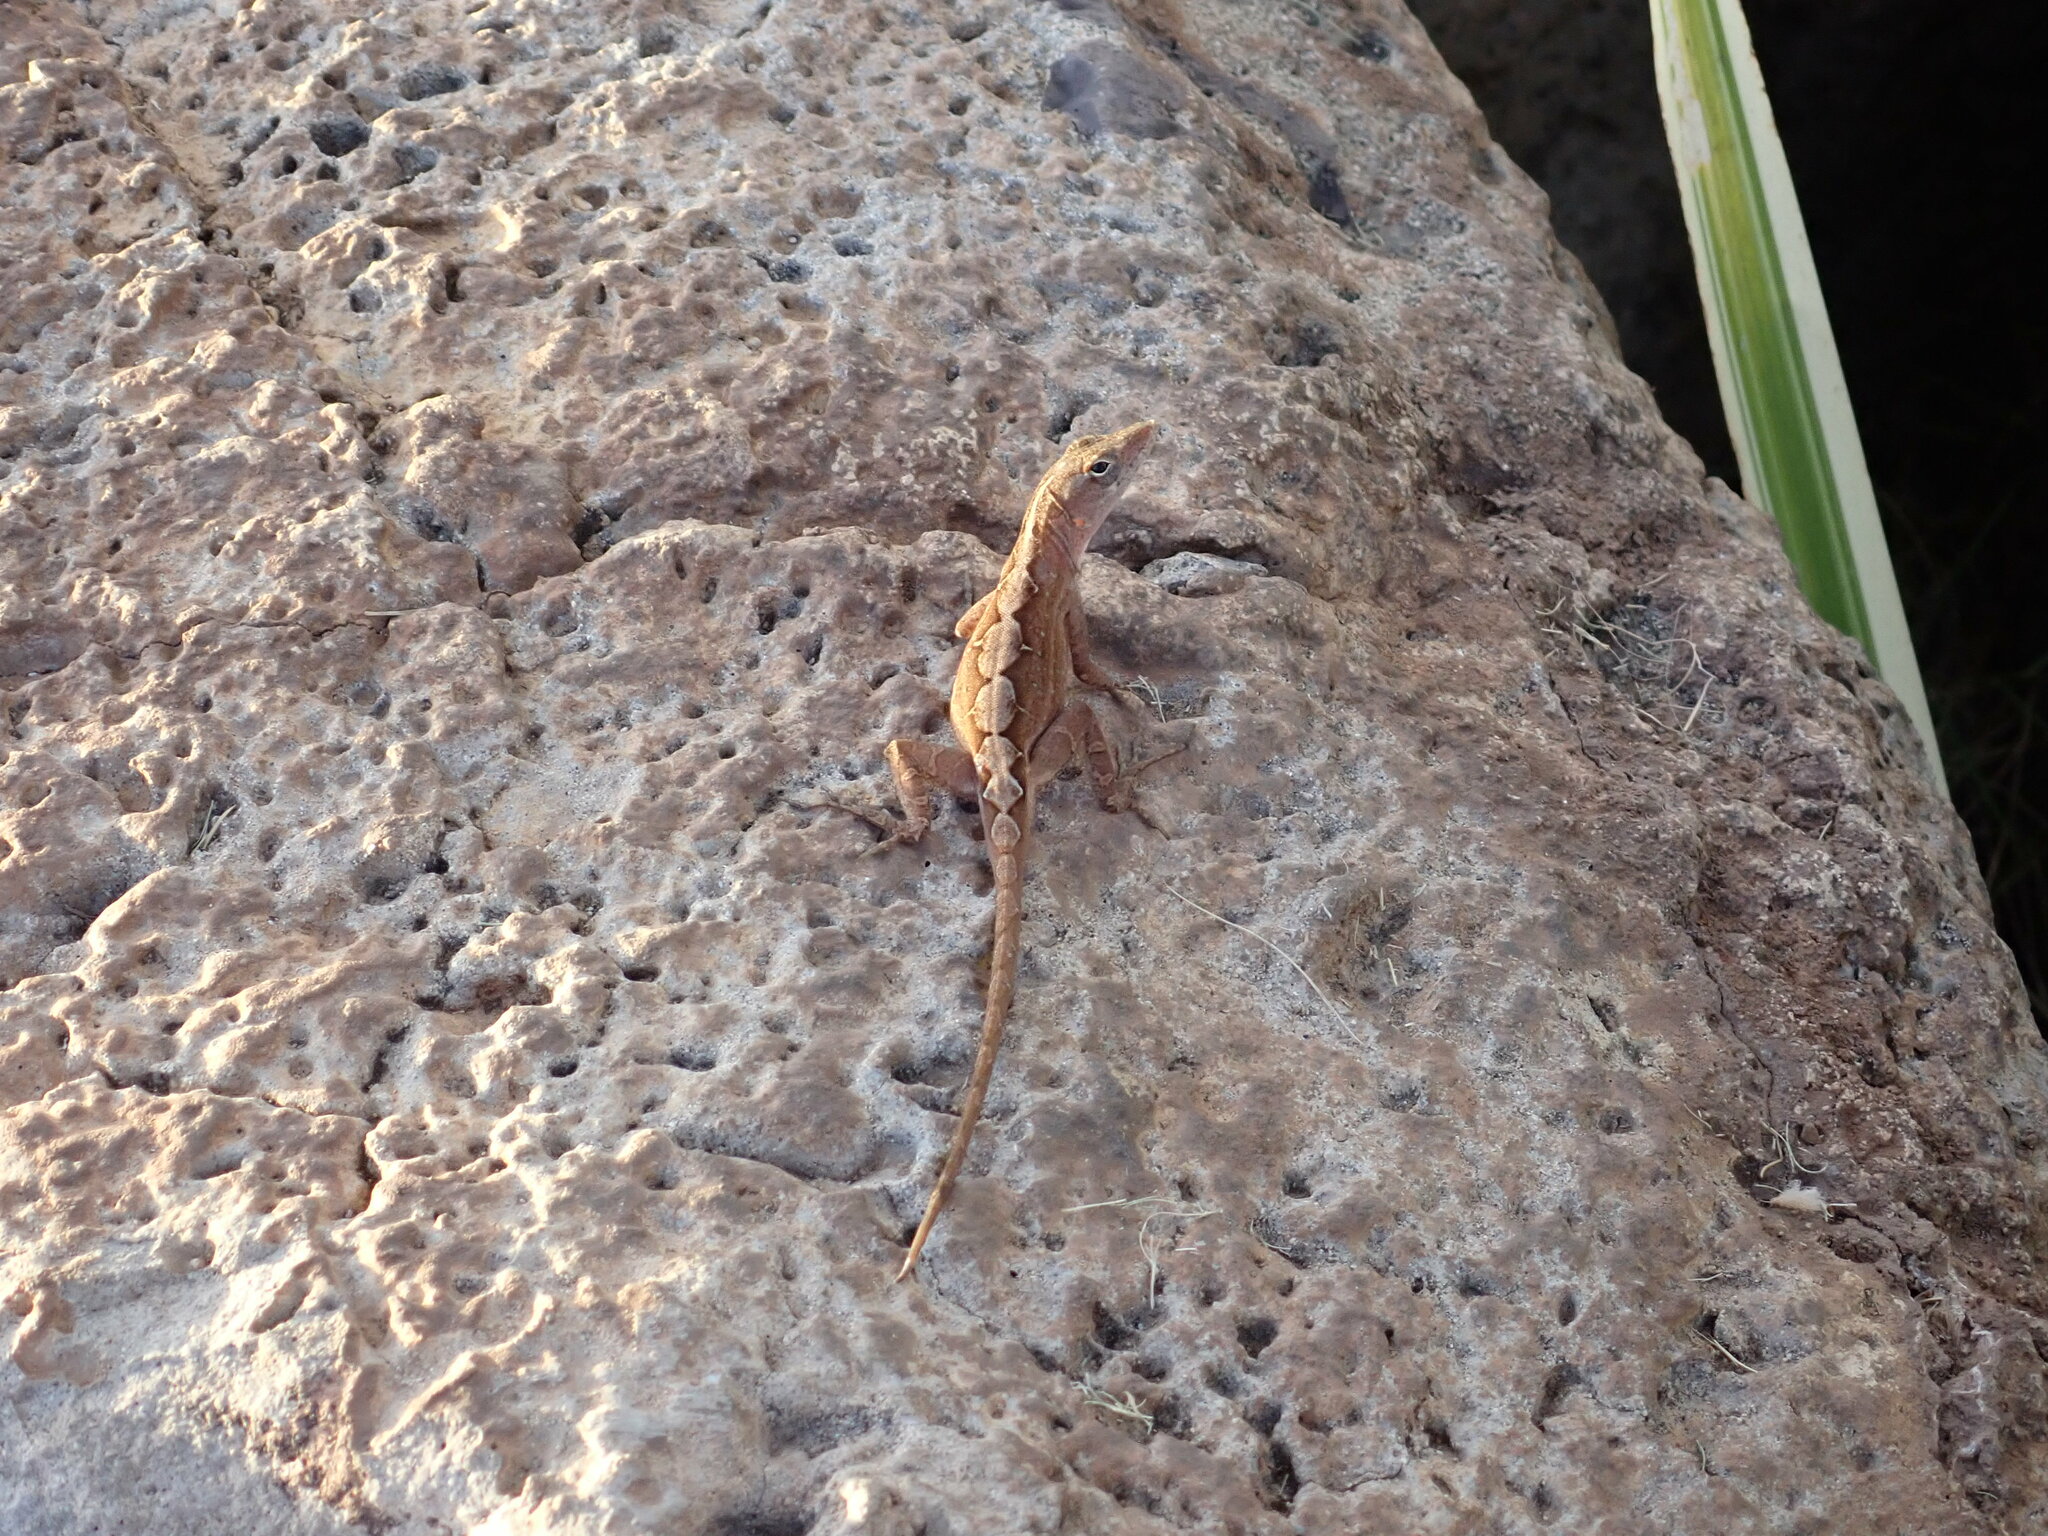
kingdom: Animalia
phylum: Chordata
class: Squamata
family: Dactyloidae
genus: Anolis
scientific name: Anolis sagrei
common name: Brown anole
